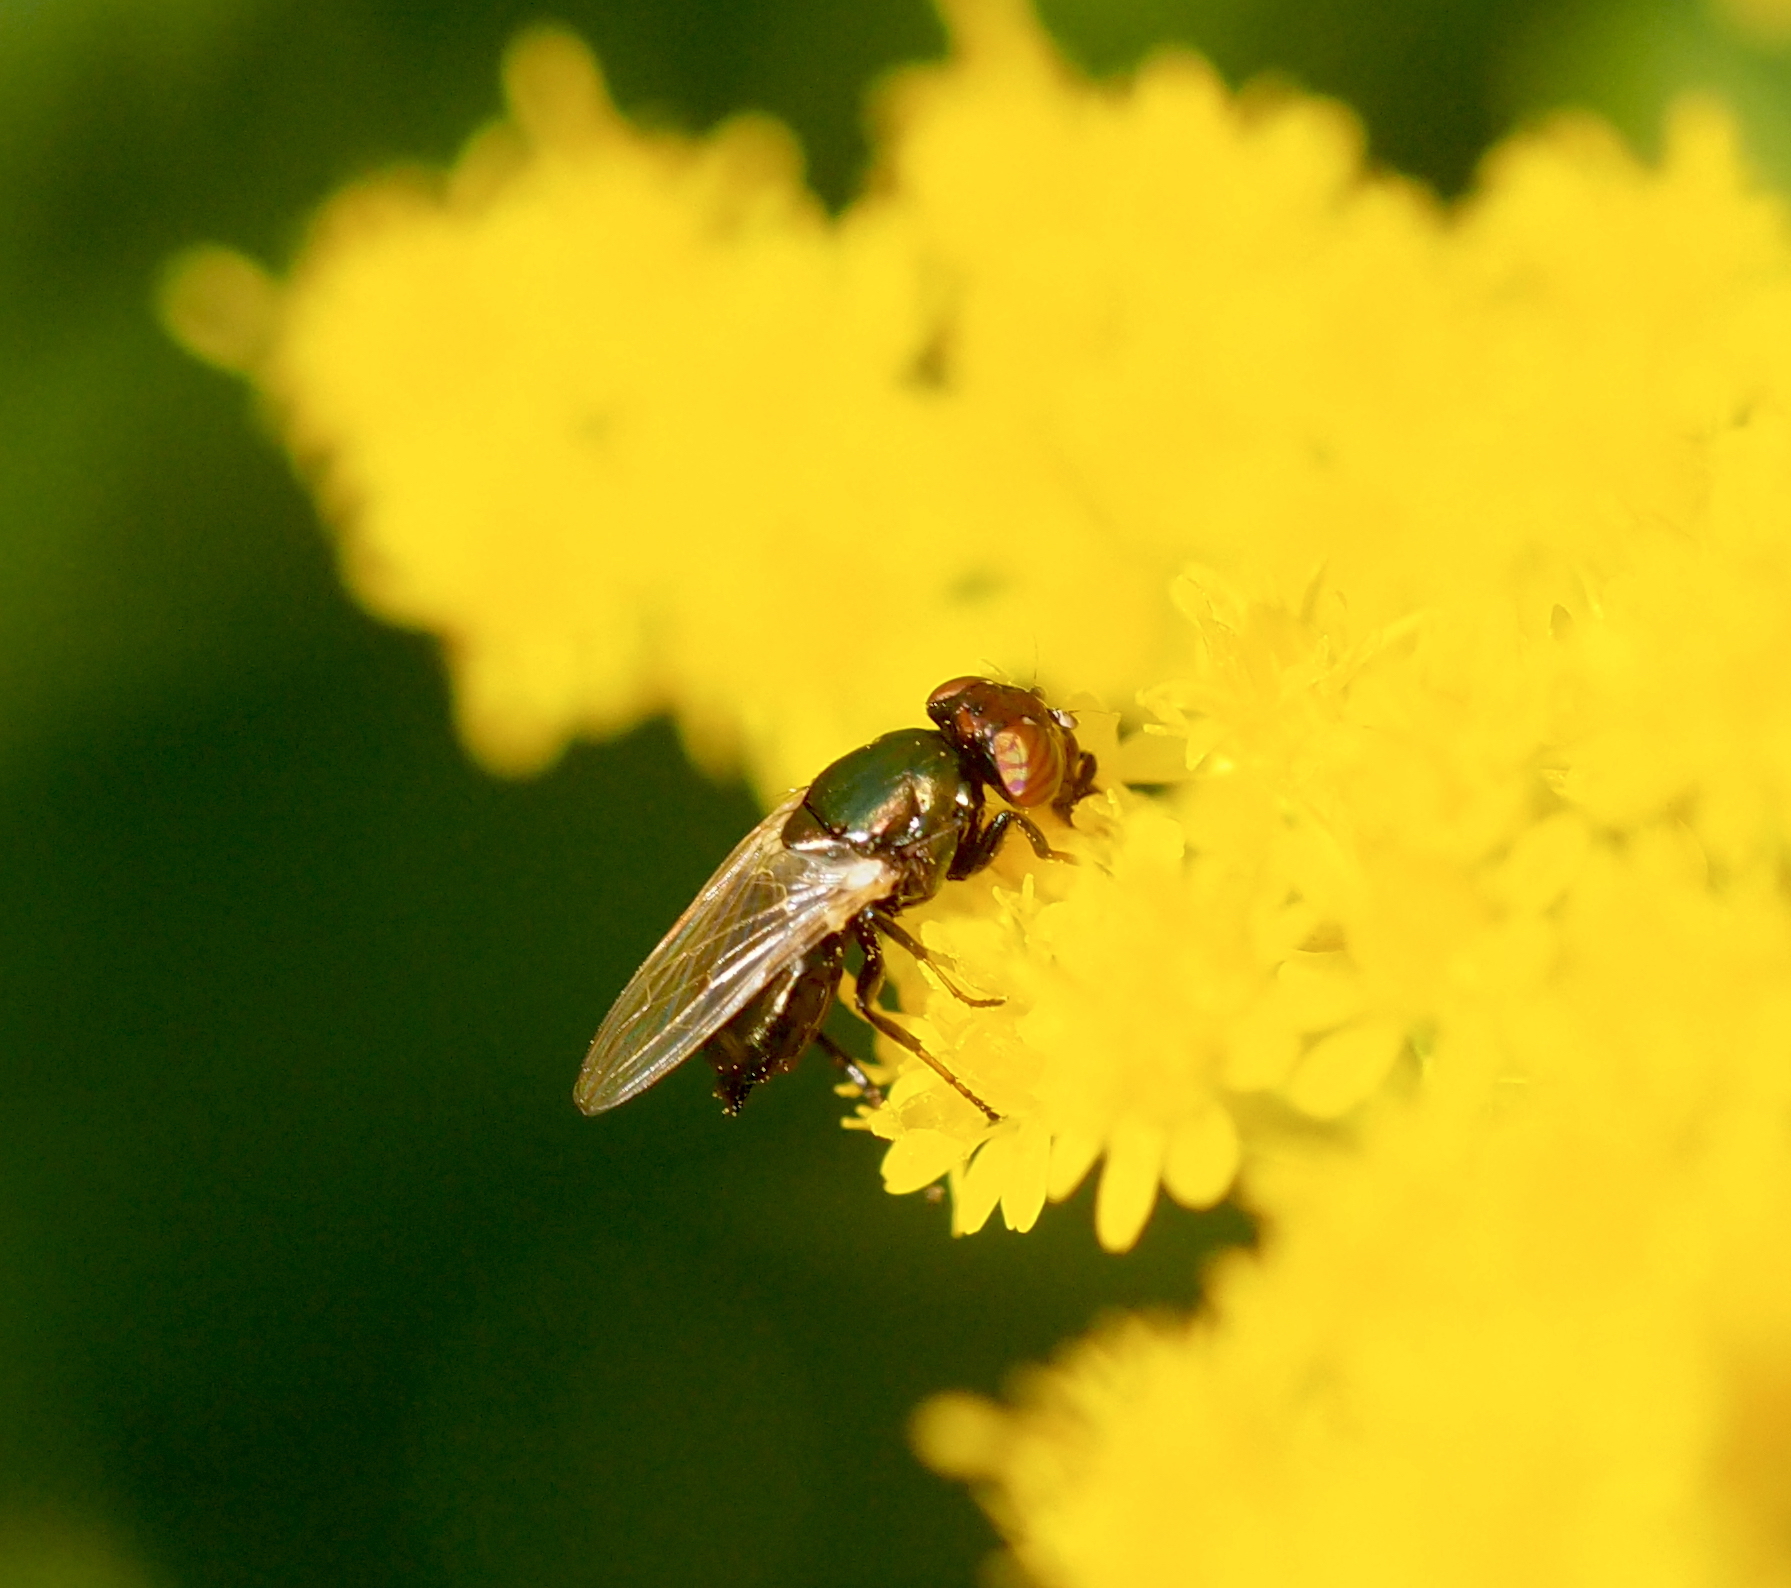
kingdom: Animalia
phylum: Arthropoda
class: Insecta
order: Diptera
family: Ulidiidae
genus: Physiphora
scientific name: Physiphora alceae
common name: Picture-winged fly
